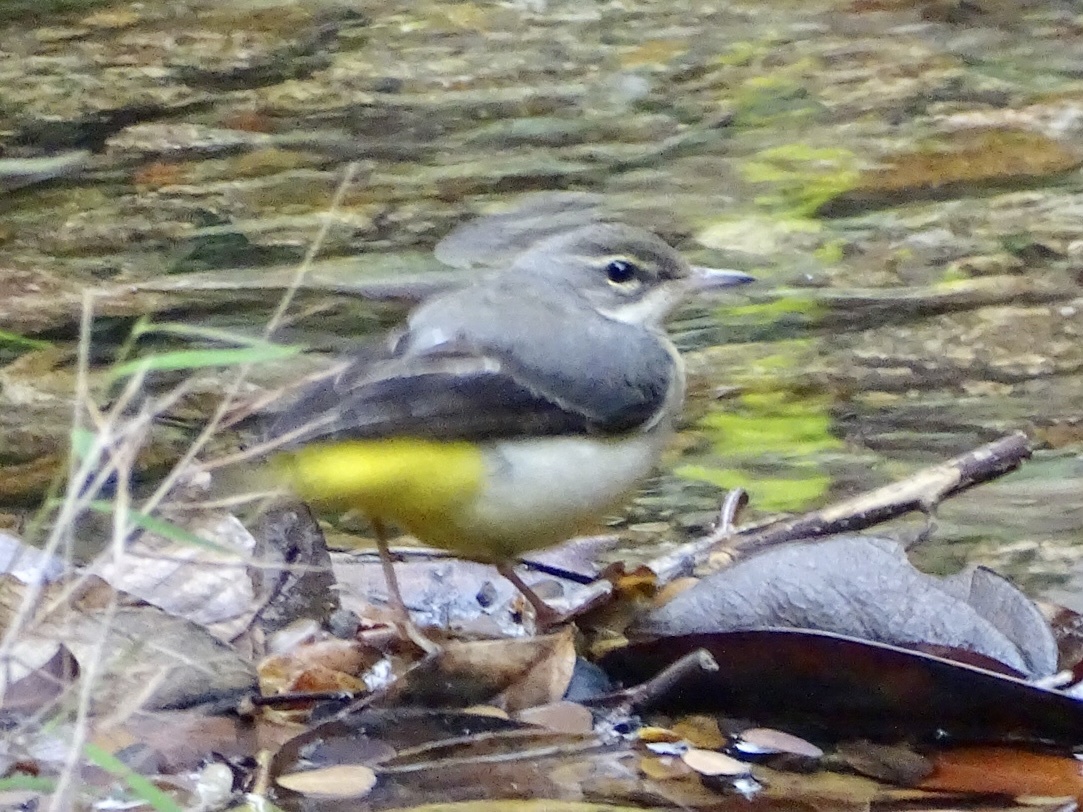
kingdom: Animalia
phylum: Chordata
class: Aves
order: Passeriformes
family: Motacillidae
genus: Motacilla
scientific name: Motacilla cinerea
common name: Grey wagtail
